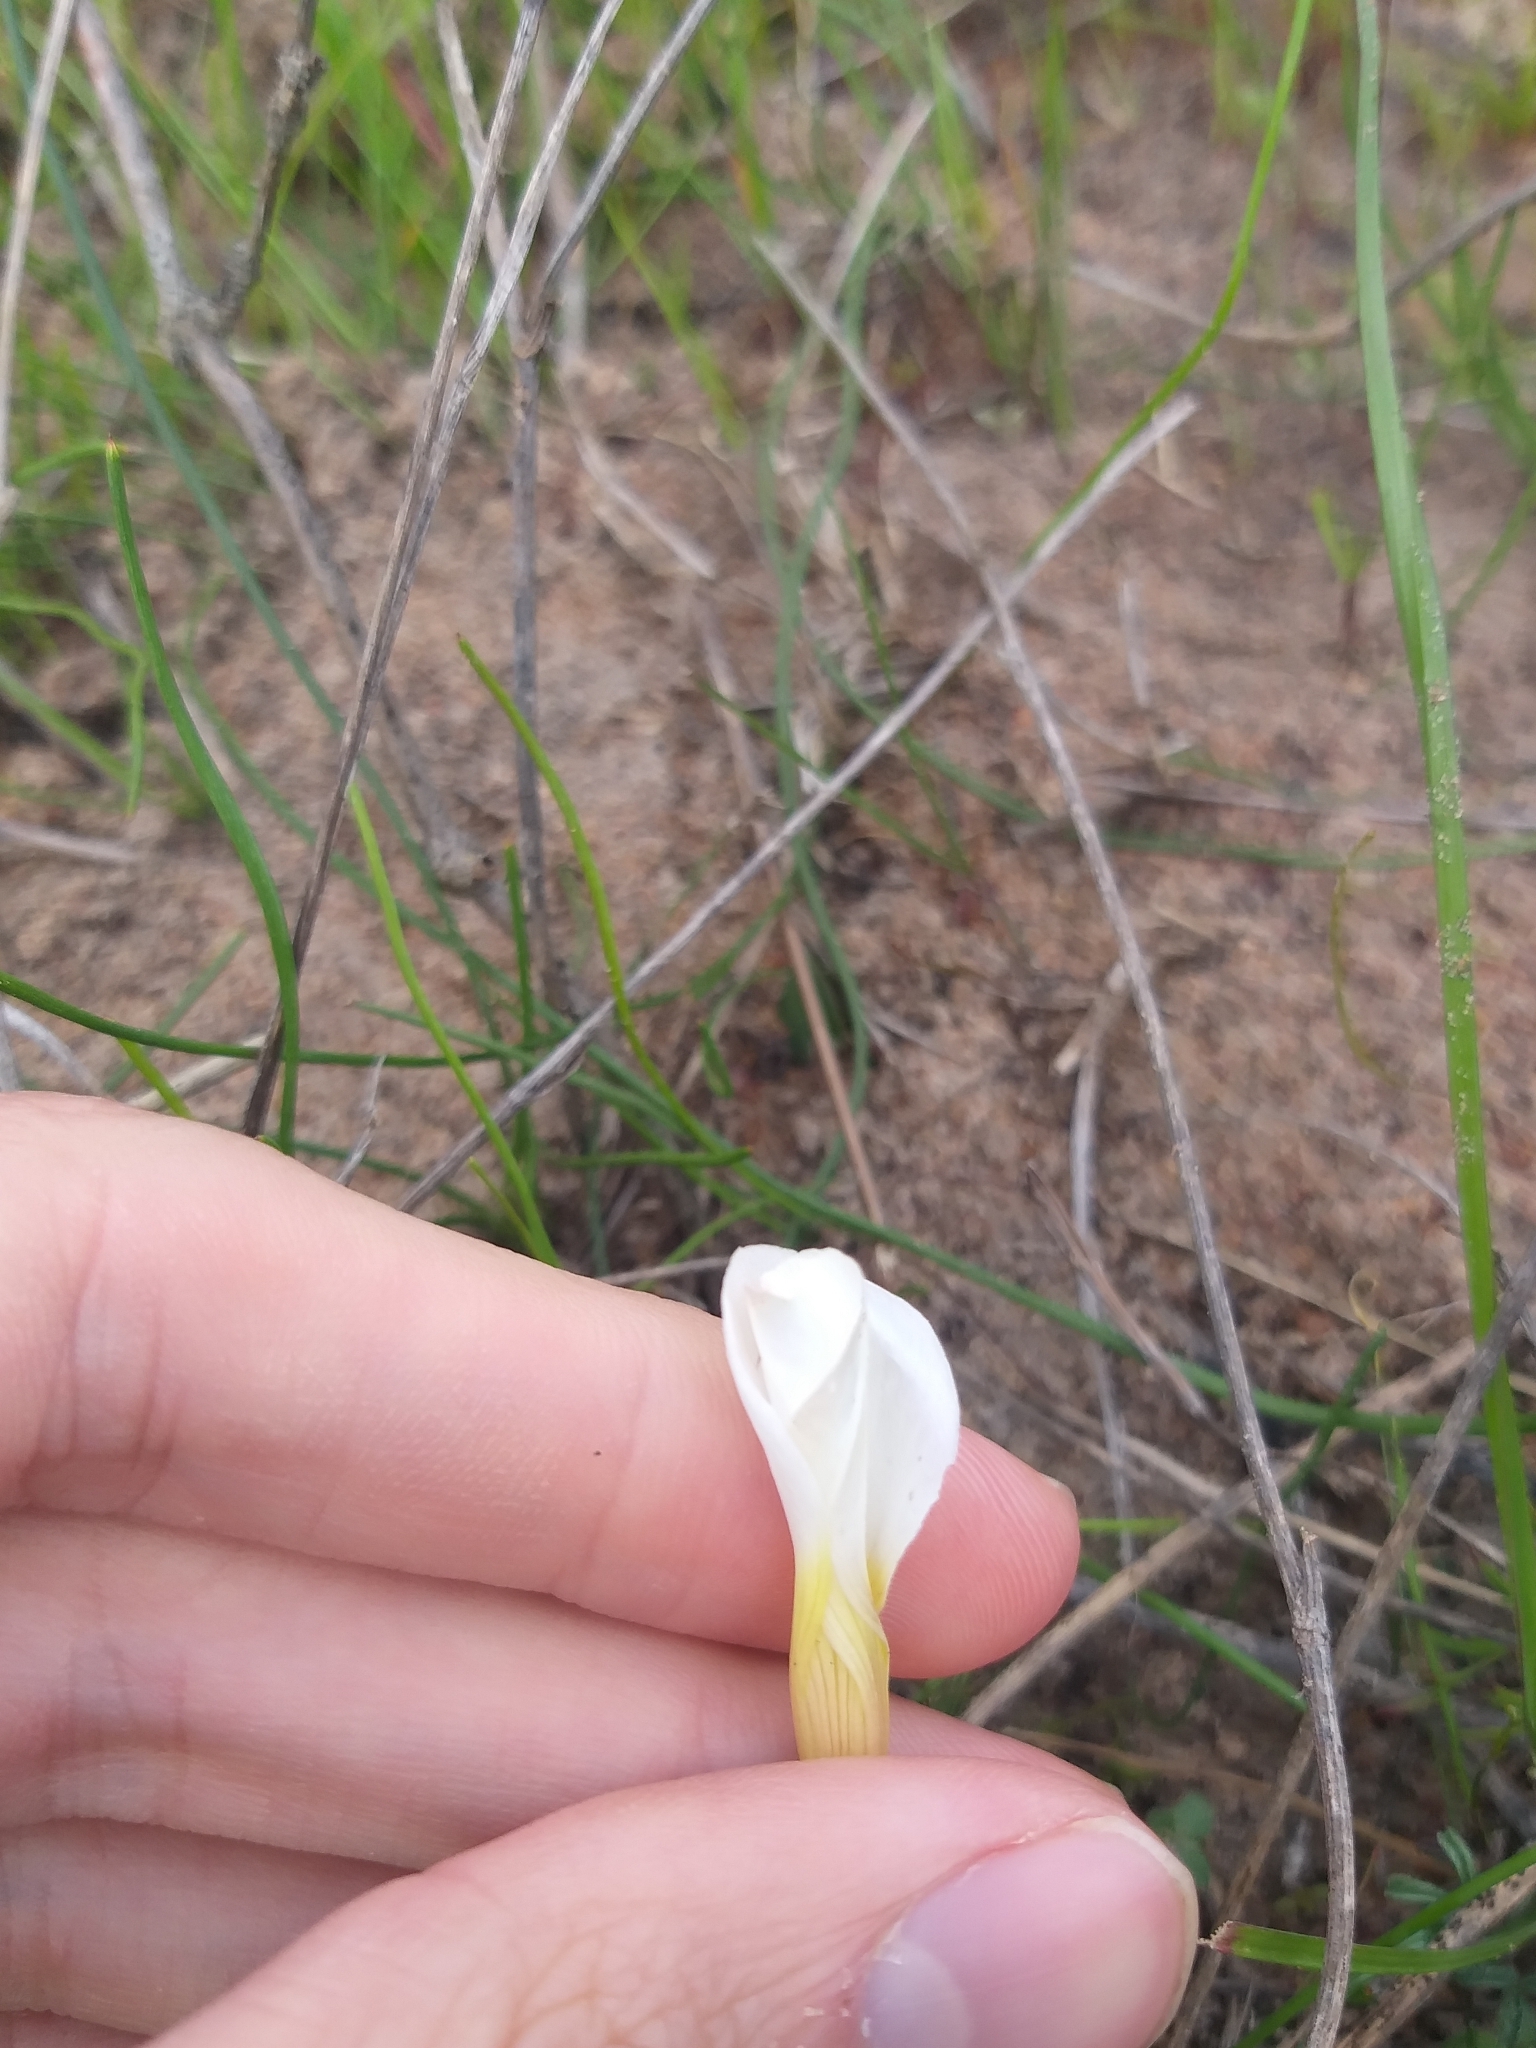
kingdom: Plantae
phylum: Tracheophyta
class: Magnoliopsida
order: Oxalidales
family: Oxalidaceae
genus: Oxalis
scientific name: Oxalis stictocheila
